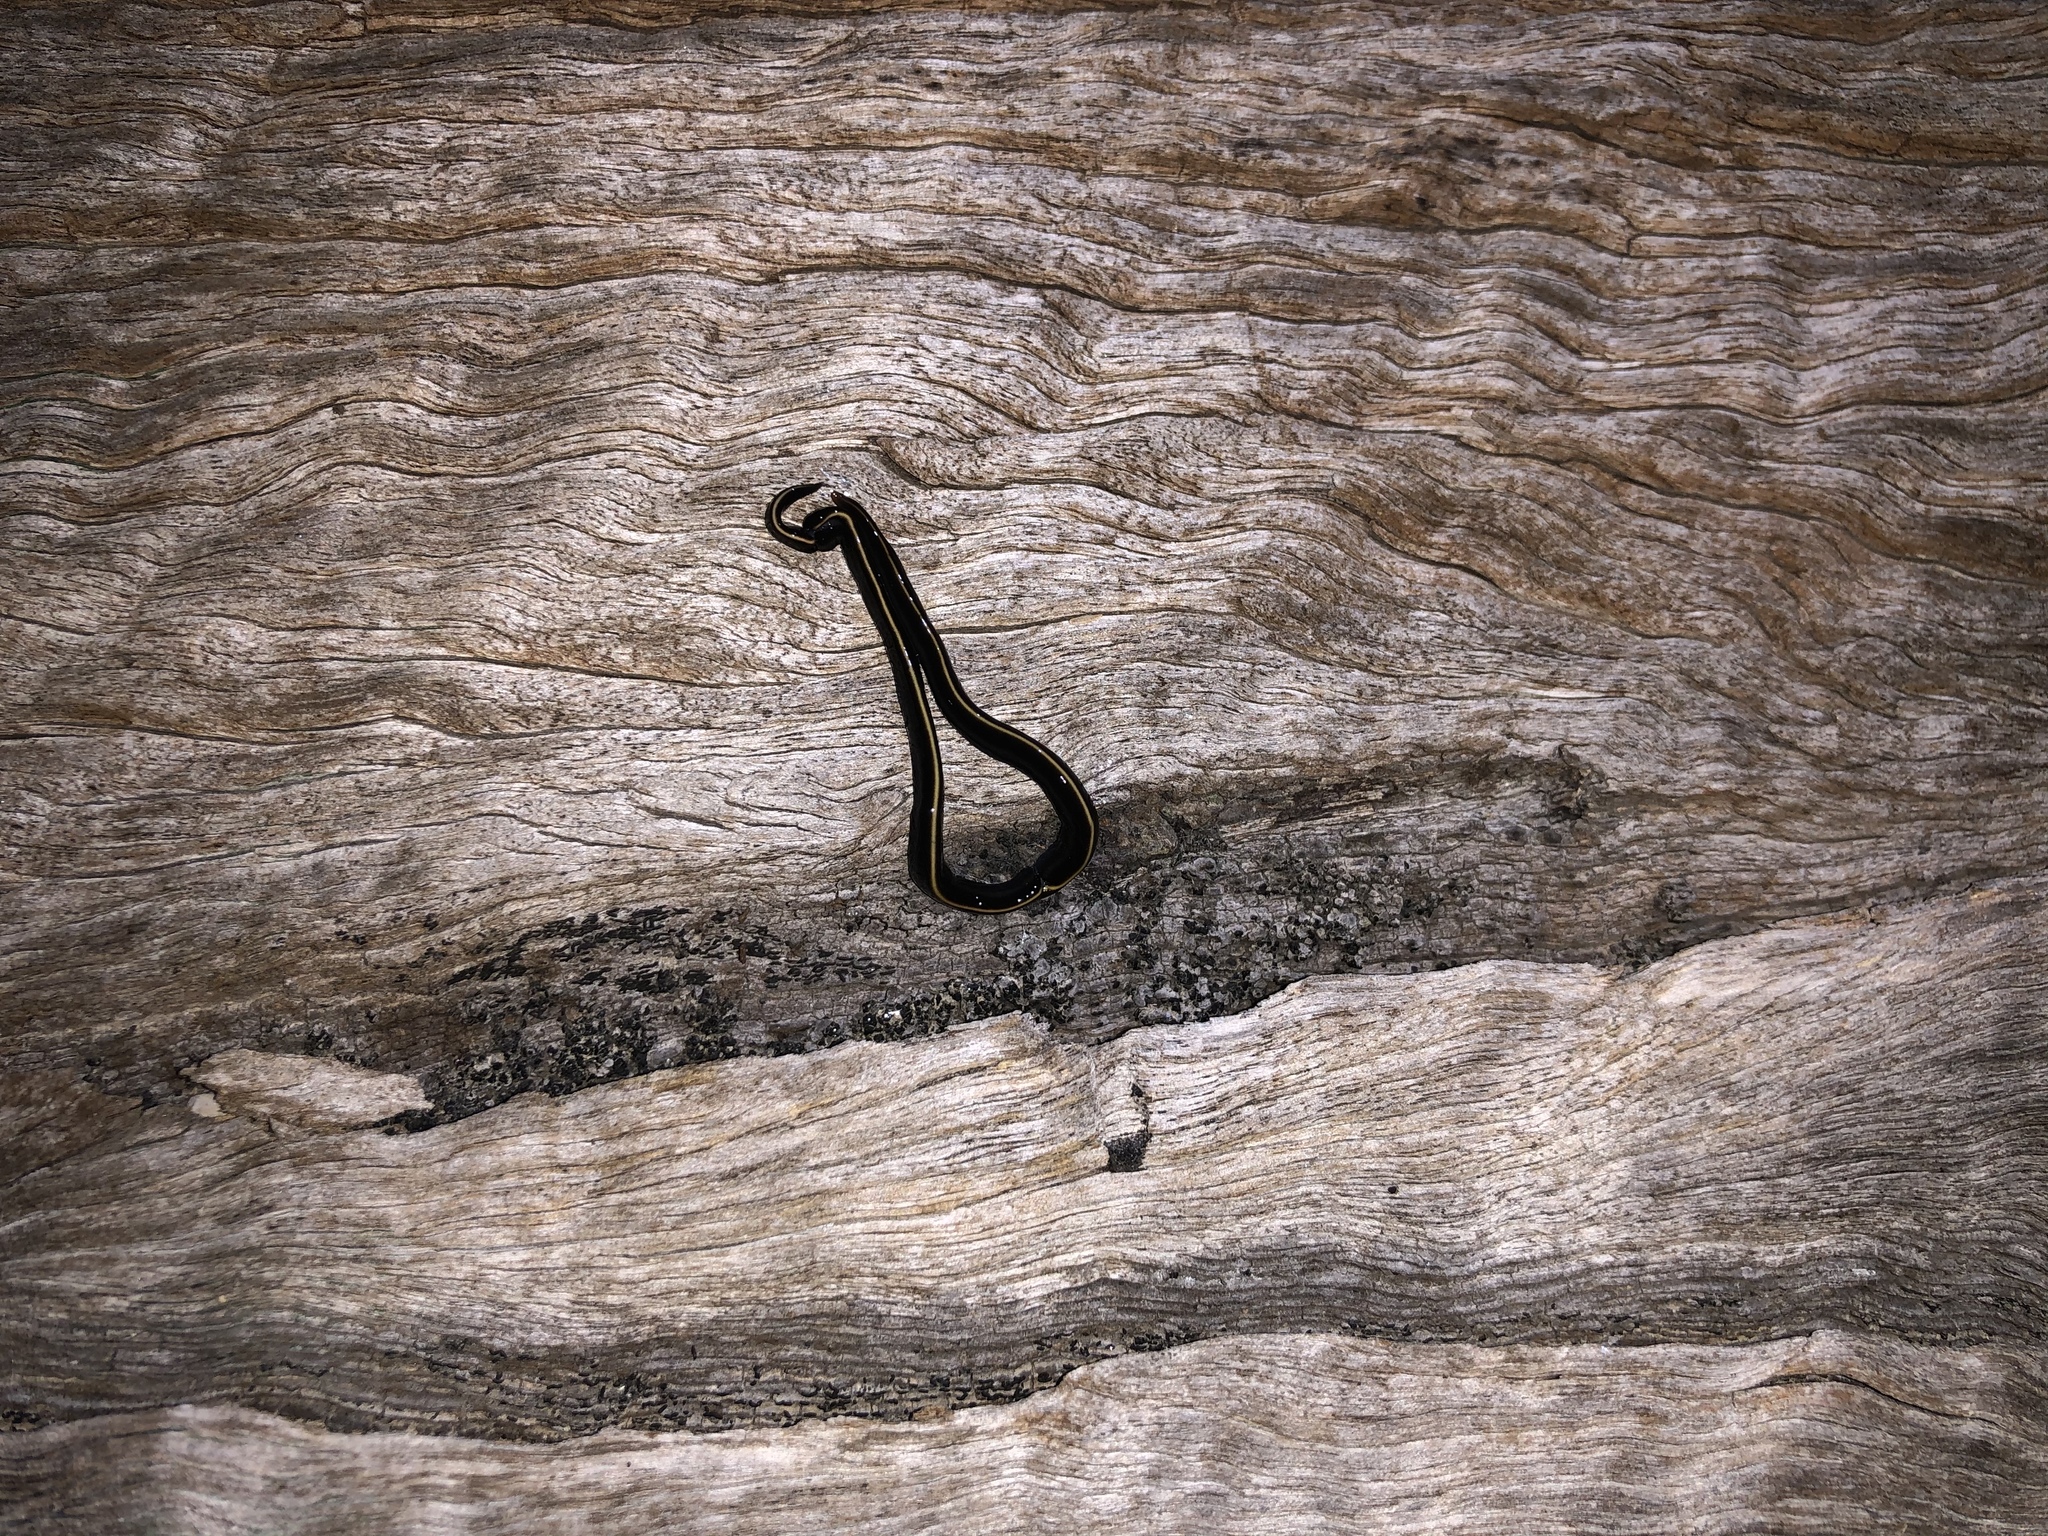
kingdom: Animalia
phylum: Platyhelminthes
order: Tricladida
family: Geoplanidae
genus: Caenoplana
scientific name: Caenoplana coerulea
